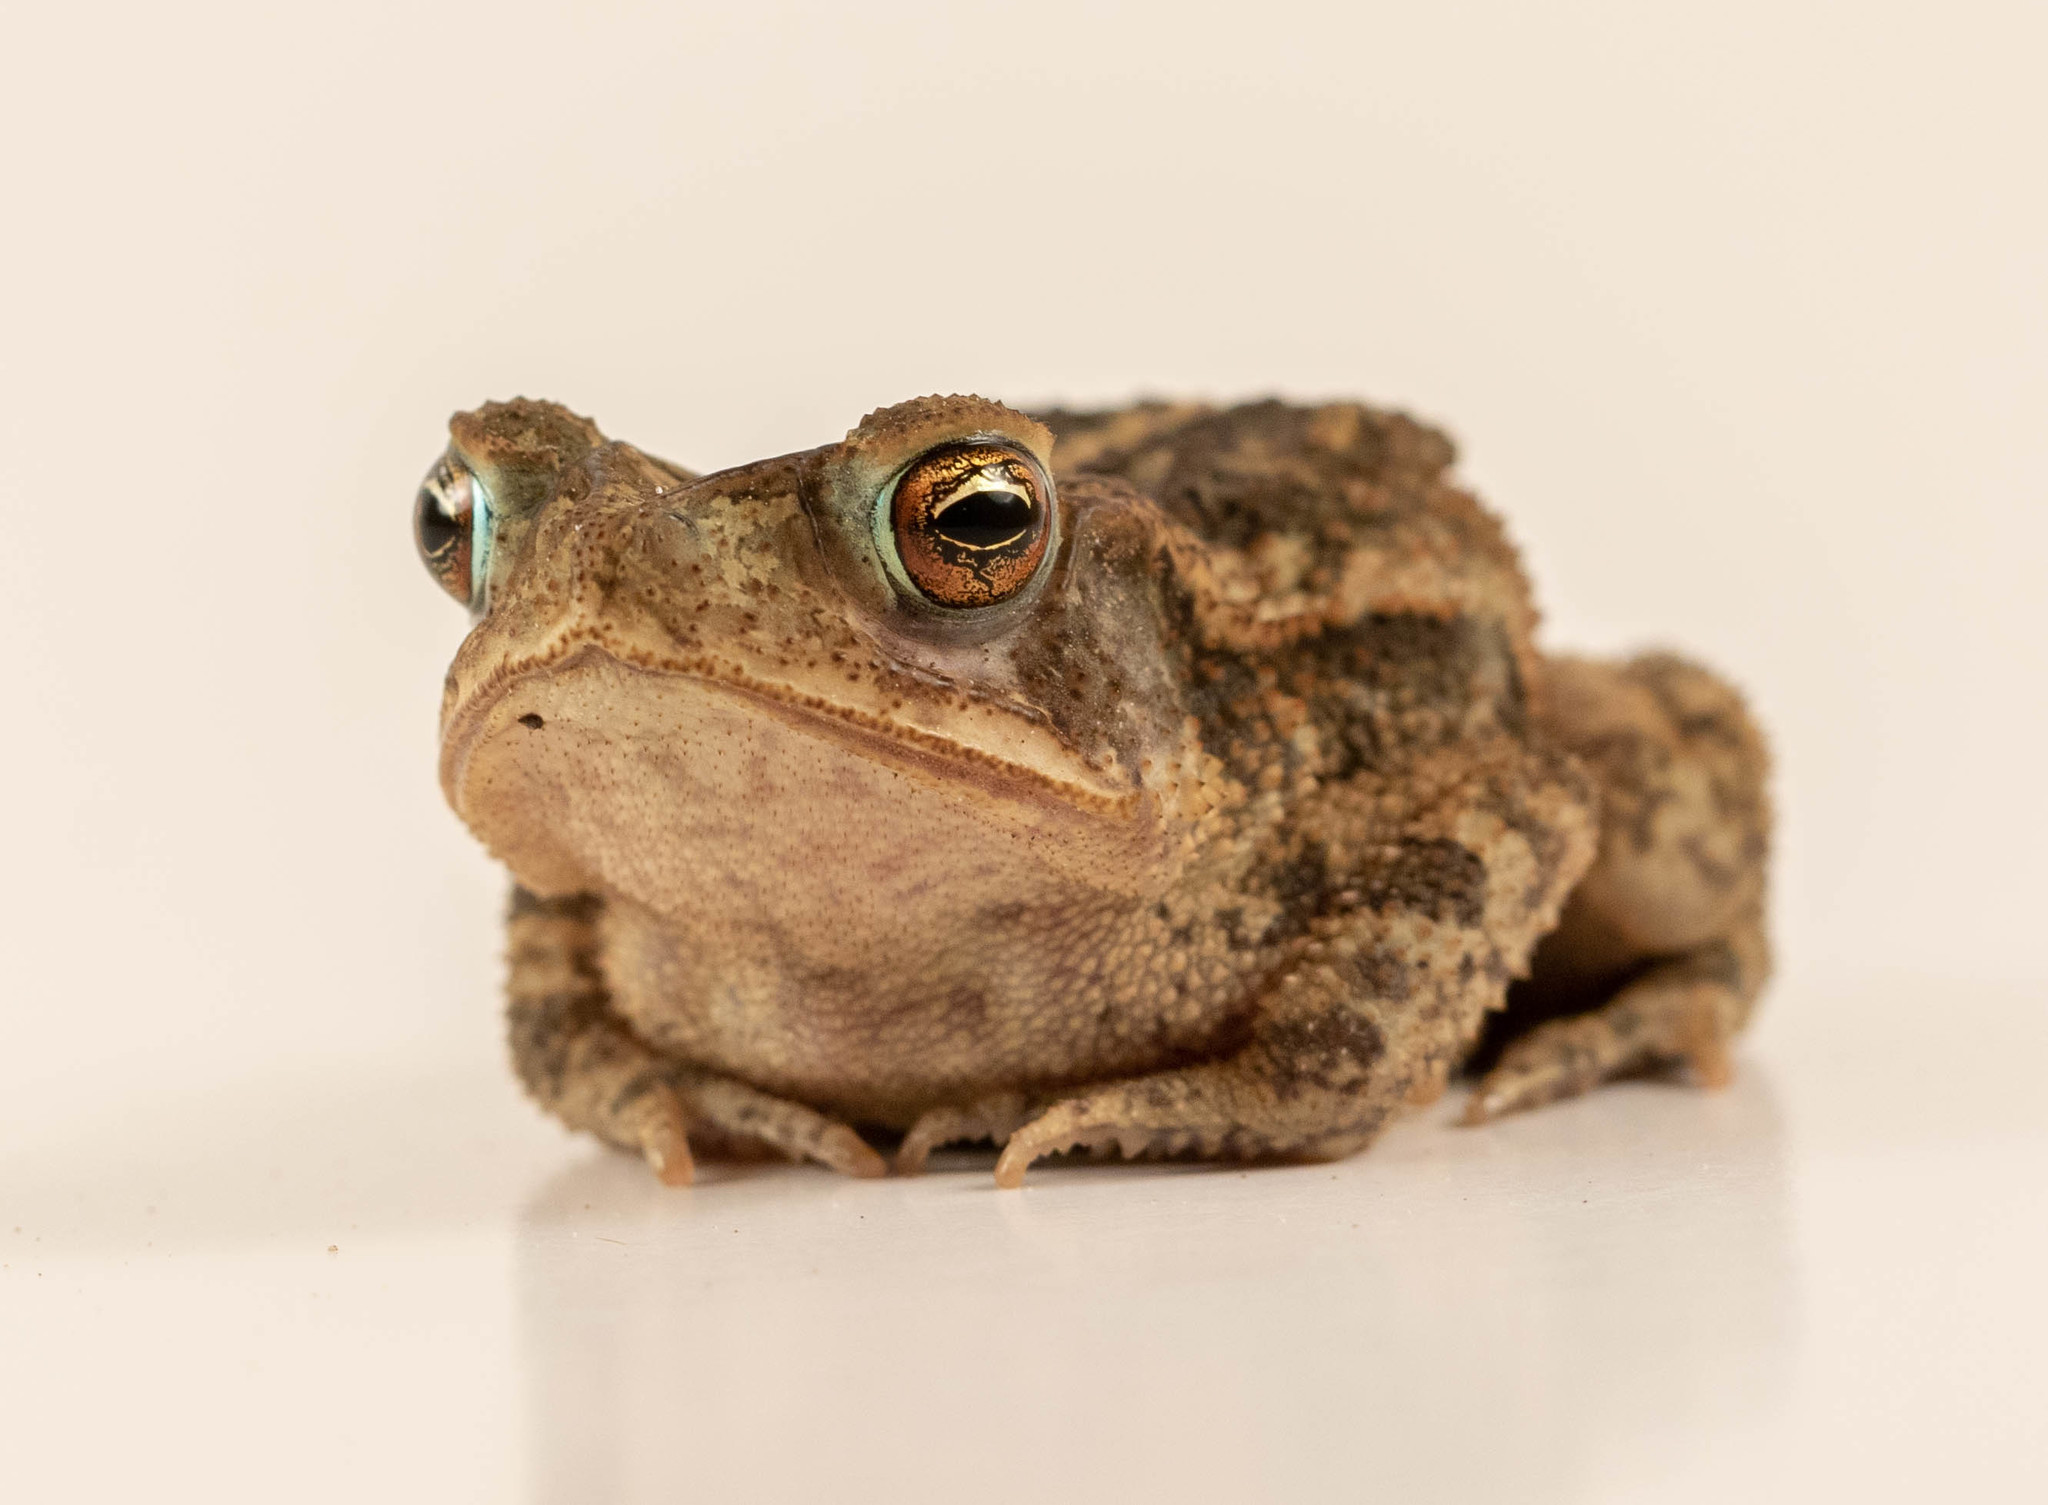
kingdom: Animalia
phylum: Chordata
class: Amphibia
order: Anura
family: Bufonidae
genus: Incilius
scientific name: Incilius nebulifer
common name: Gulf coast toad
